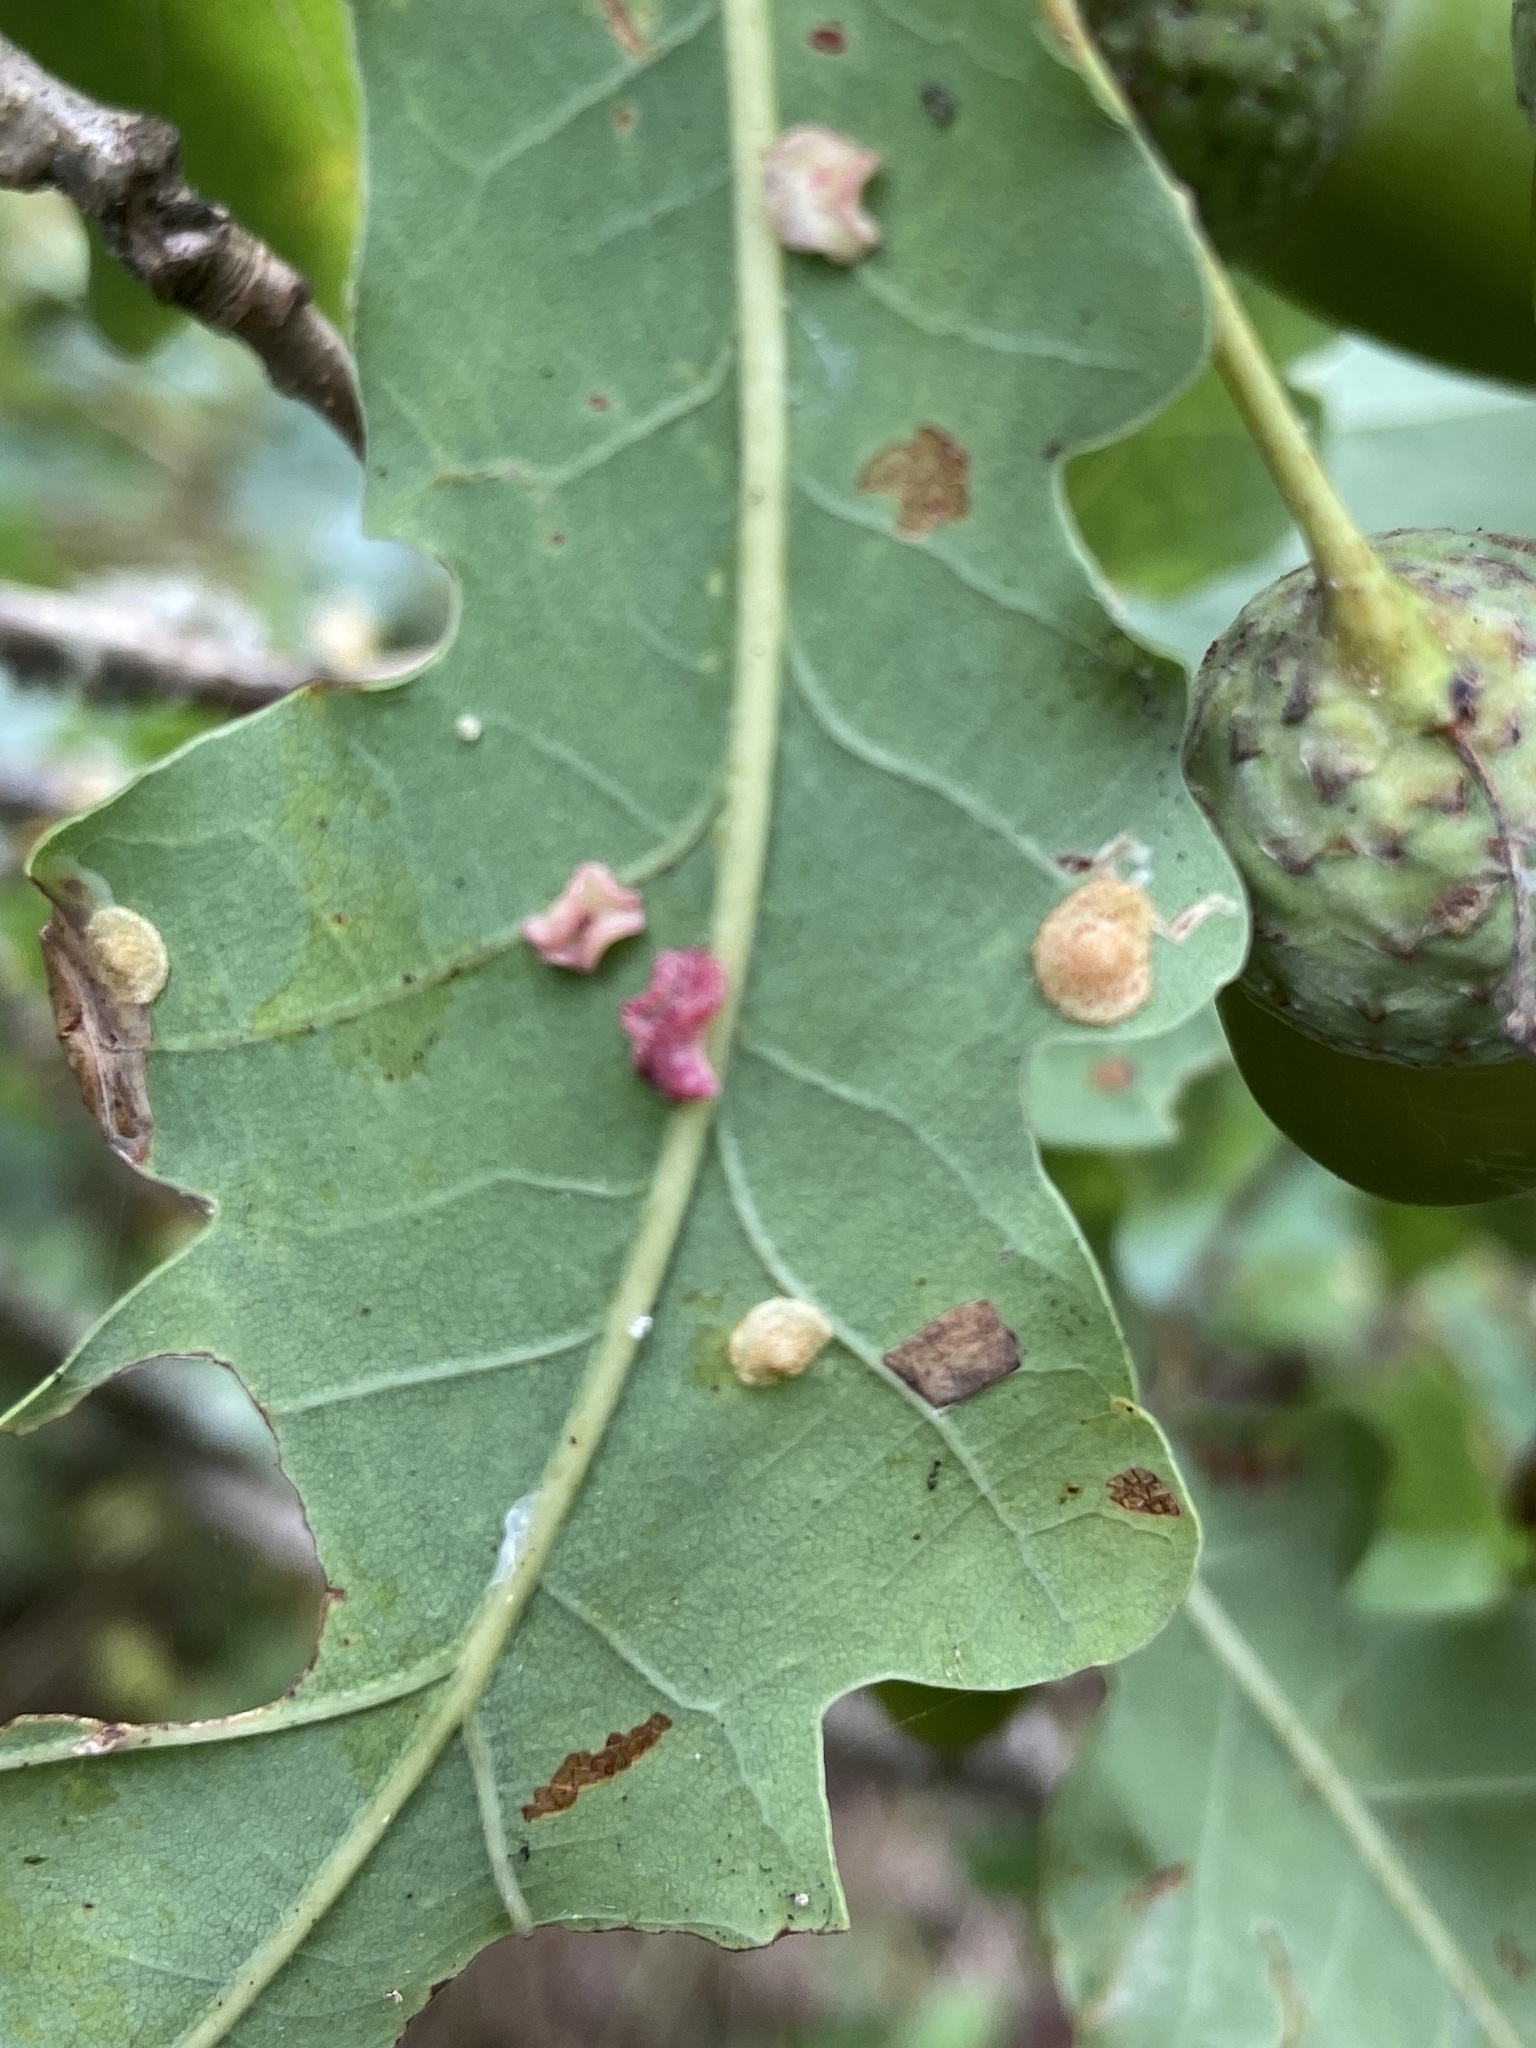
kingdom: Animalia
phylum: Arthropoda
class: Insecta
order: Hymenoptera
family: Cynipidae
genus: Neuroterus
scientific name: Neuroterus quercusbaccarum
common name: Common spangle gall
